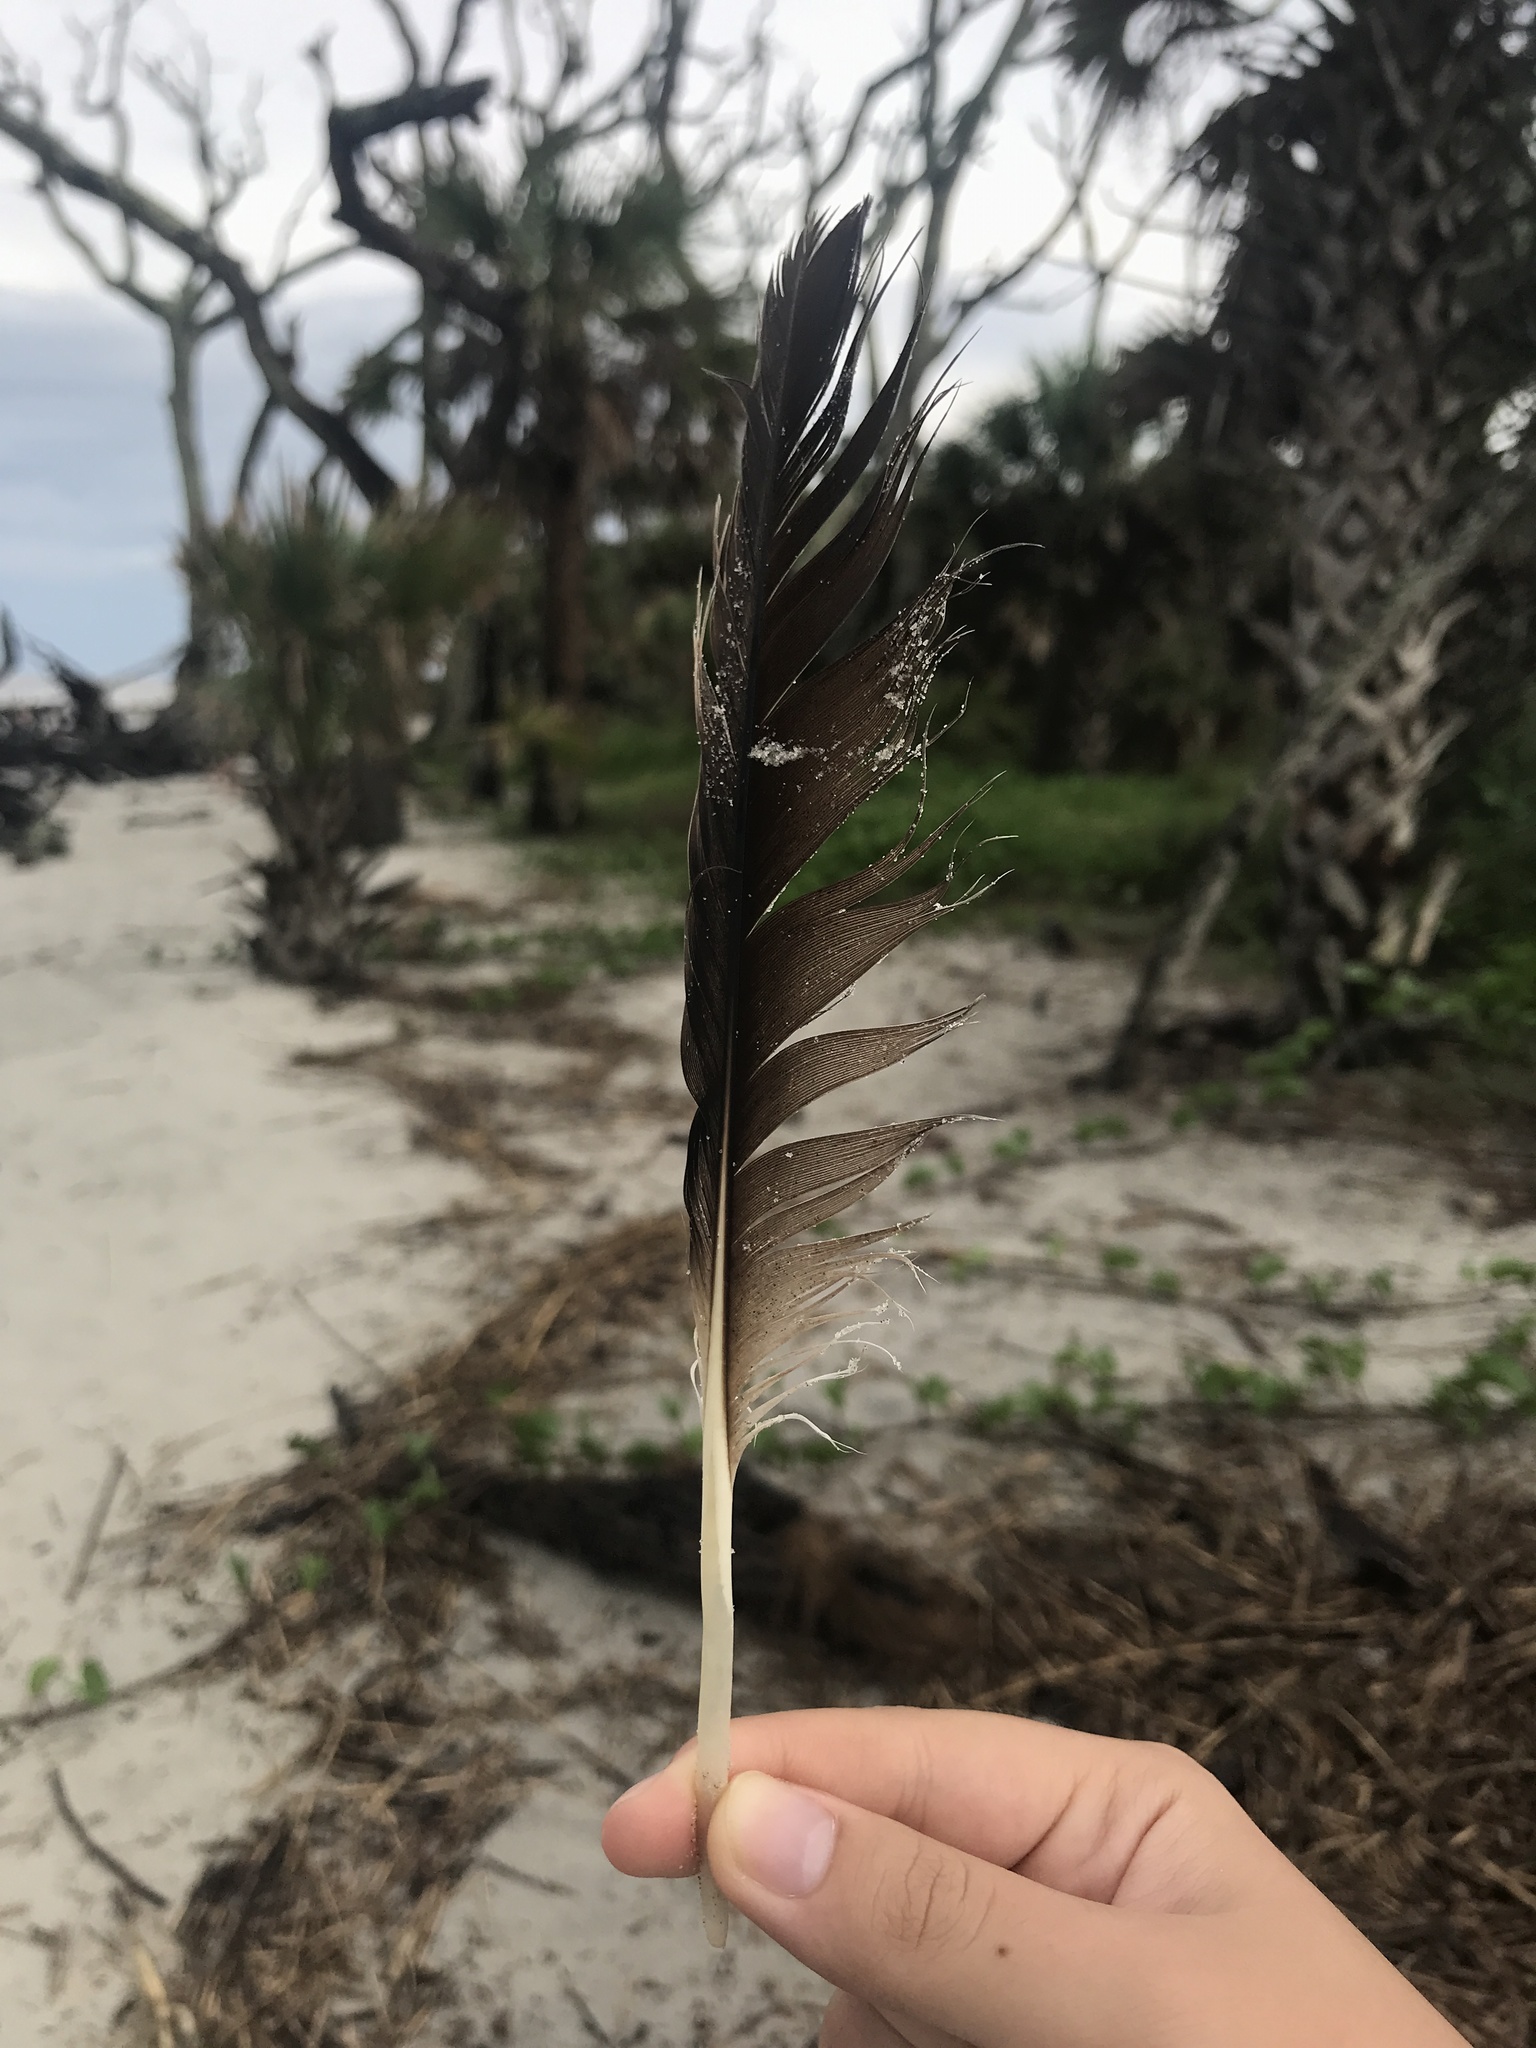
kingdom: Animalia
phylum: Chordata
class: Aves
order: Pelecaniformes
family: Pelecanidae
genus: Pelecanus
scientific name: Pelecanus occidentalis
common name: Brown pelican
